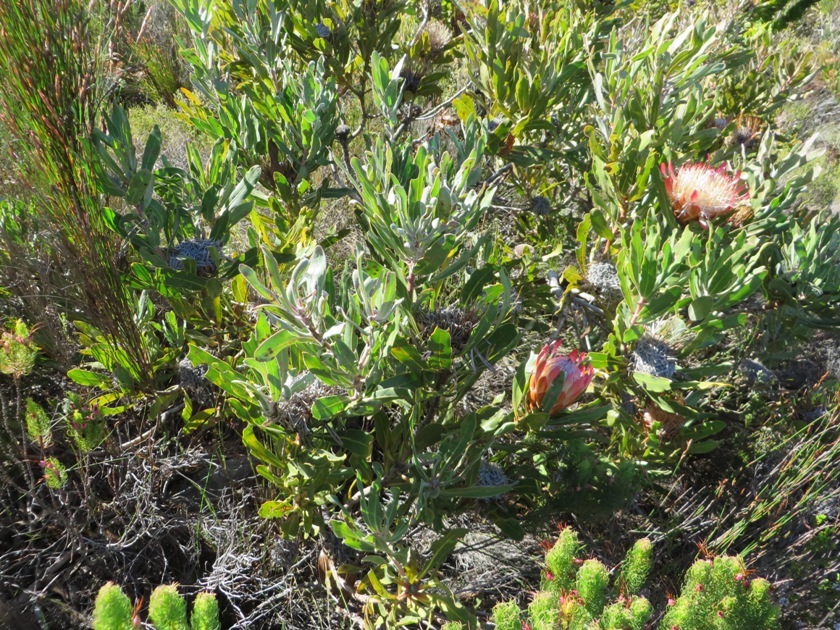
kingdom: Plantae
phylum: Tracheophyta
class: Magnoliopsida
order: Proteales
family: Proteaceae
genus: Protea
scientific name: Protea susannae
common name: Foetid-leaf sugarbush
